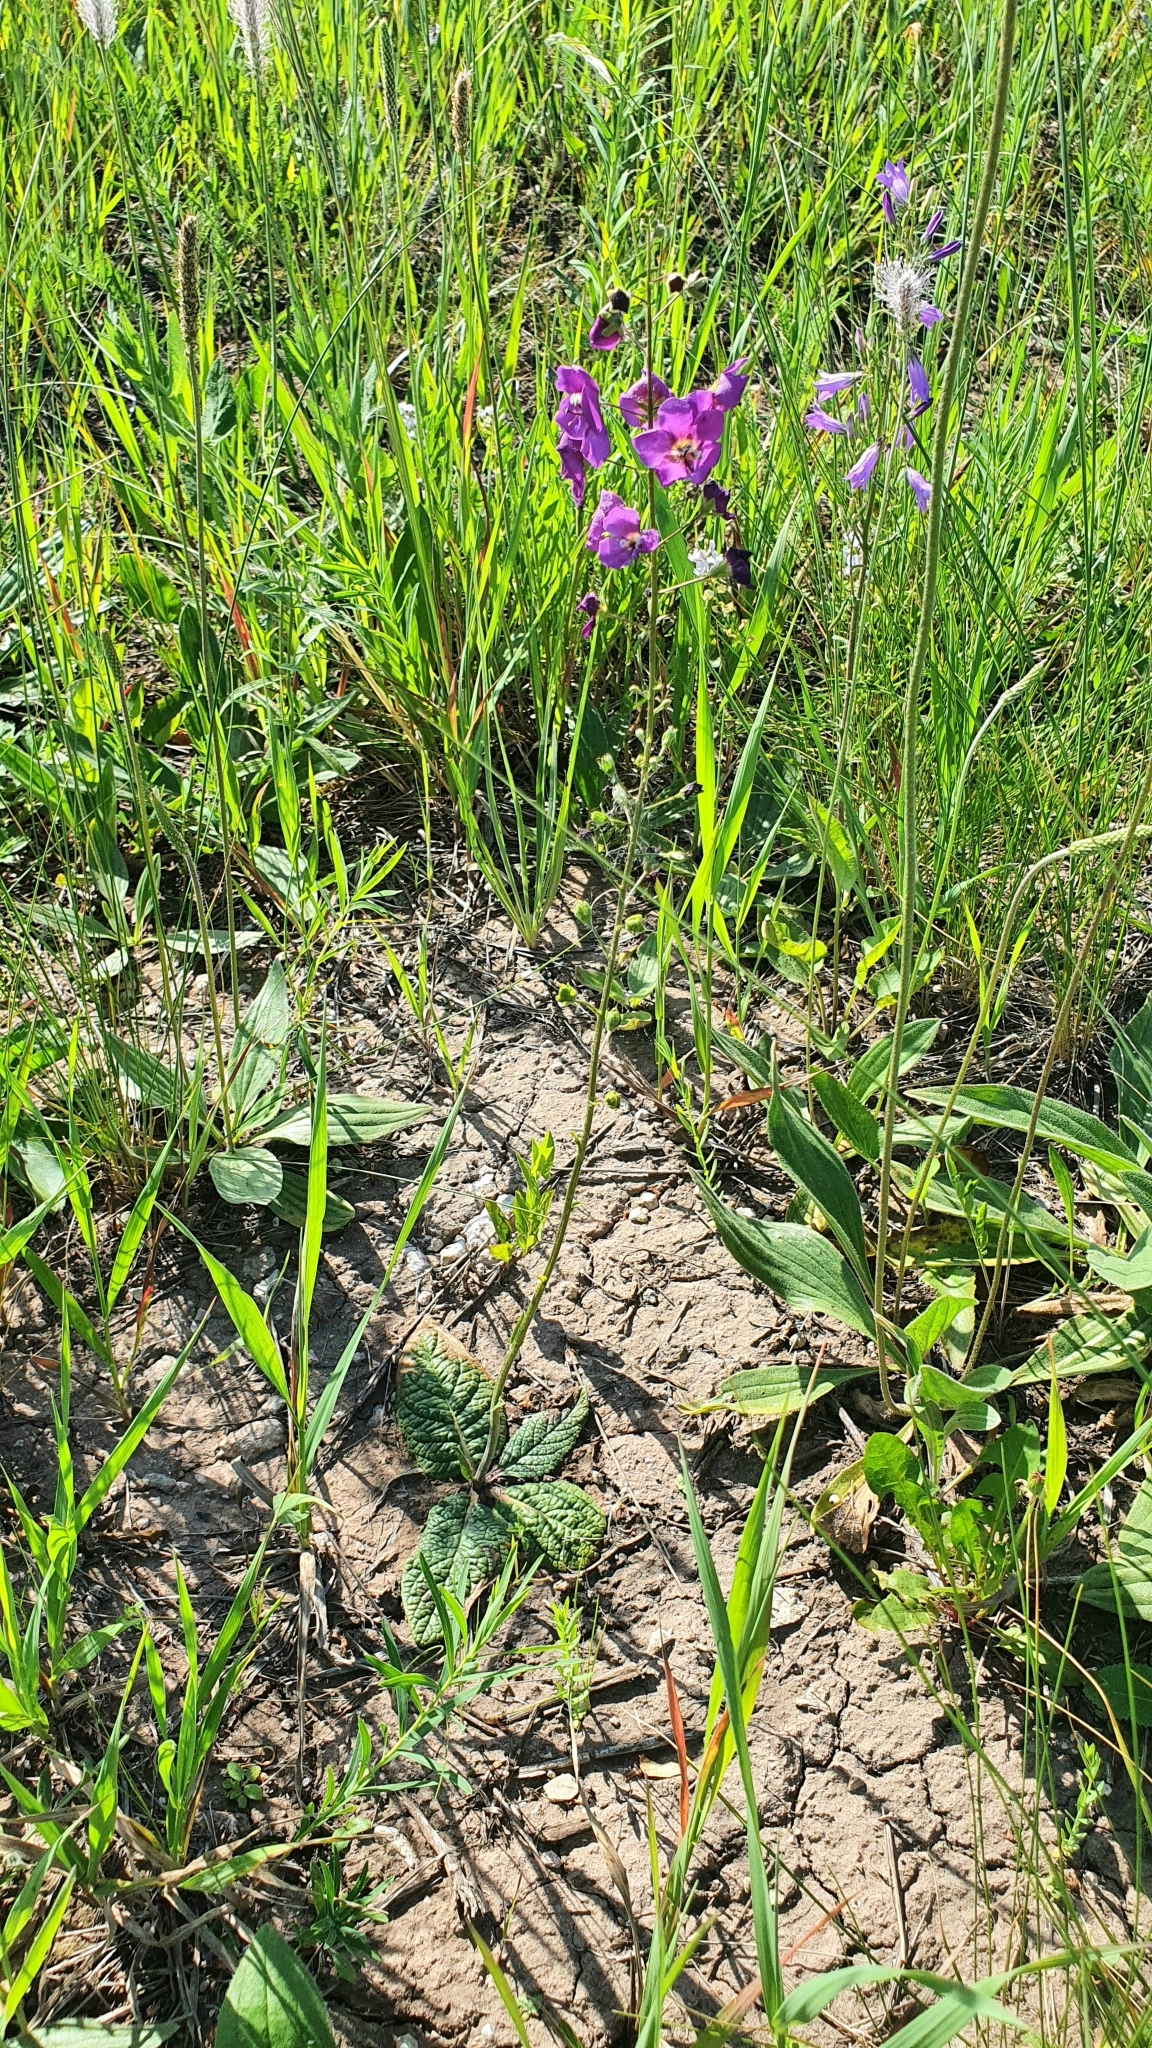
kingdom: Plantae
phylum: Tracheophyta
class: Magnoliopsida
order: Lamiales
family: Scrophulariaceae
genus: Verbascum
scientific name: Verbascum phoeniceum
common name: Purple mullein
